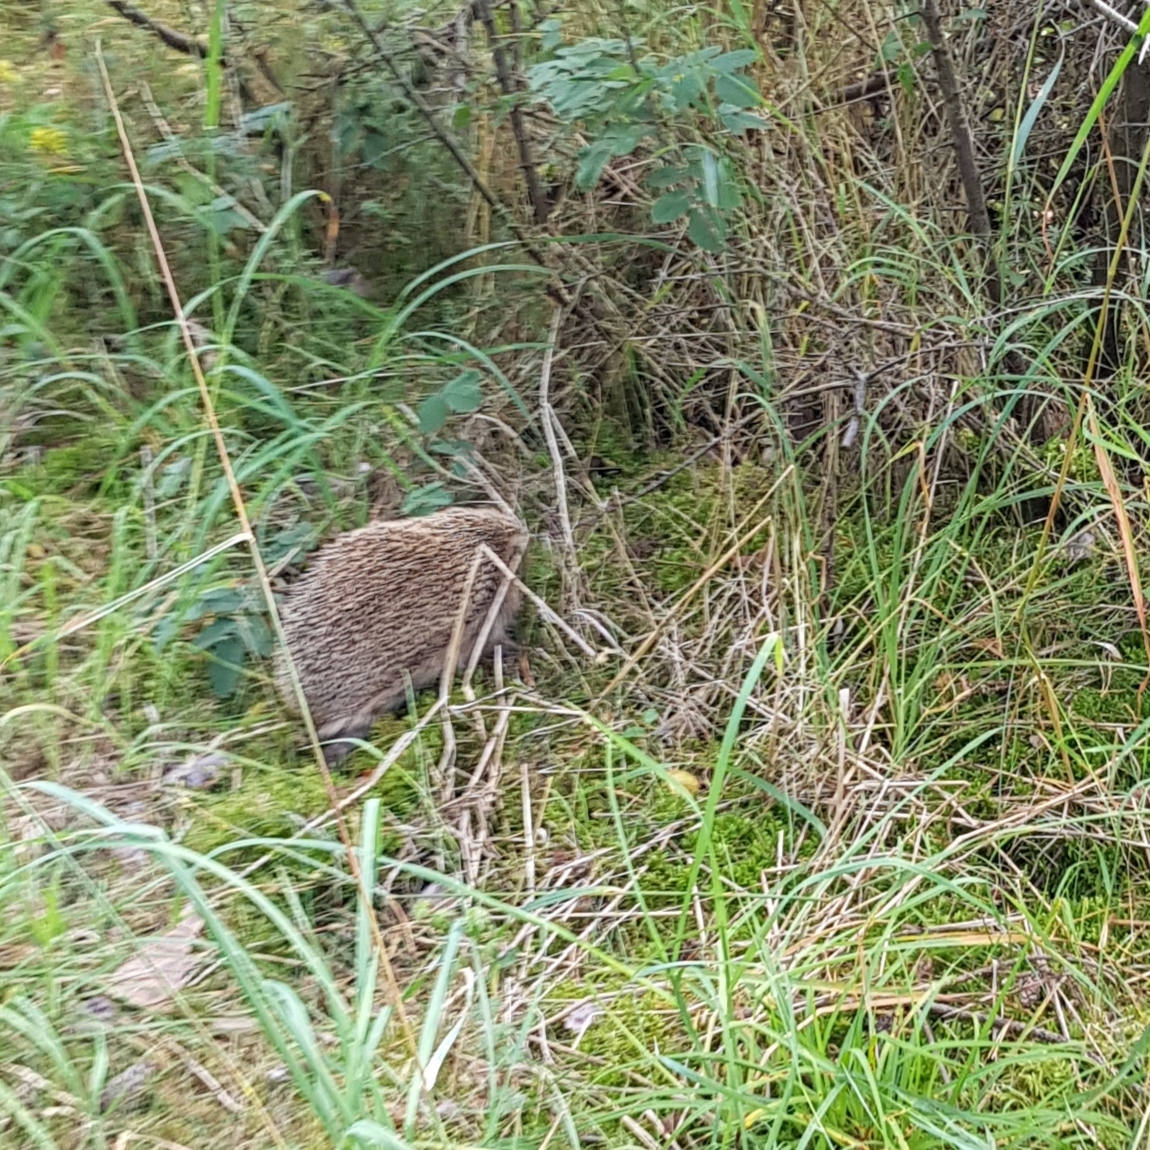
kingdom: Animalia
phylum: Chordata
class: Mammalia
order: Erinaceomorpha
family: Erinaceidae
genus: Erinaceus
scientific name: Erinaceus europaeus
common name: West european hedgehog
